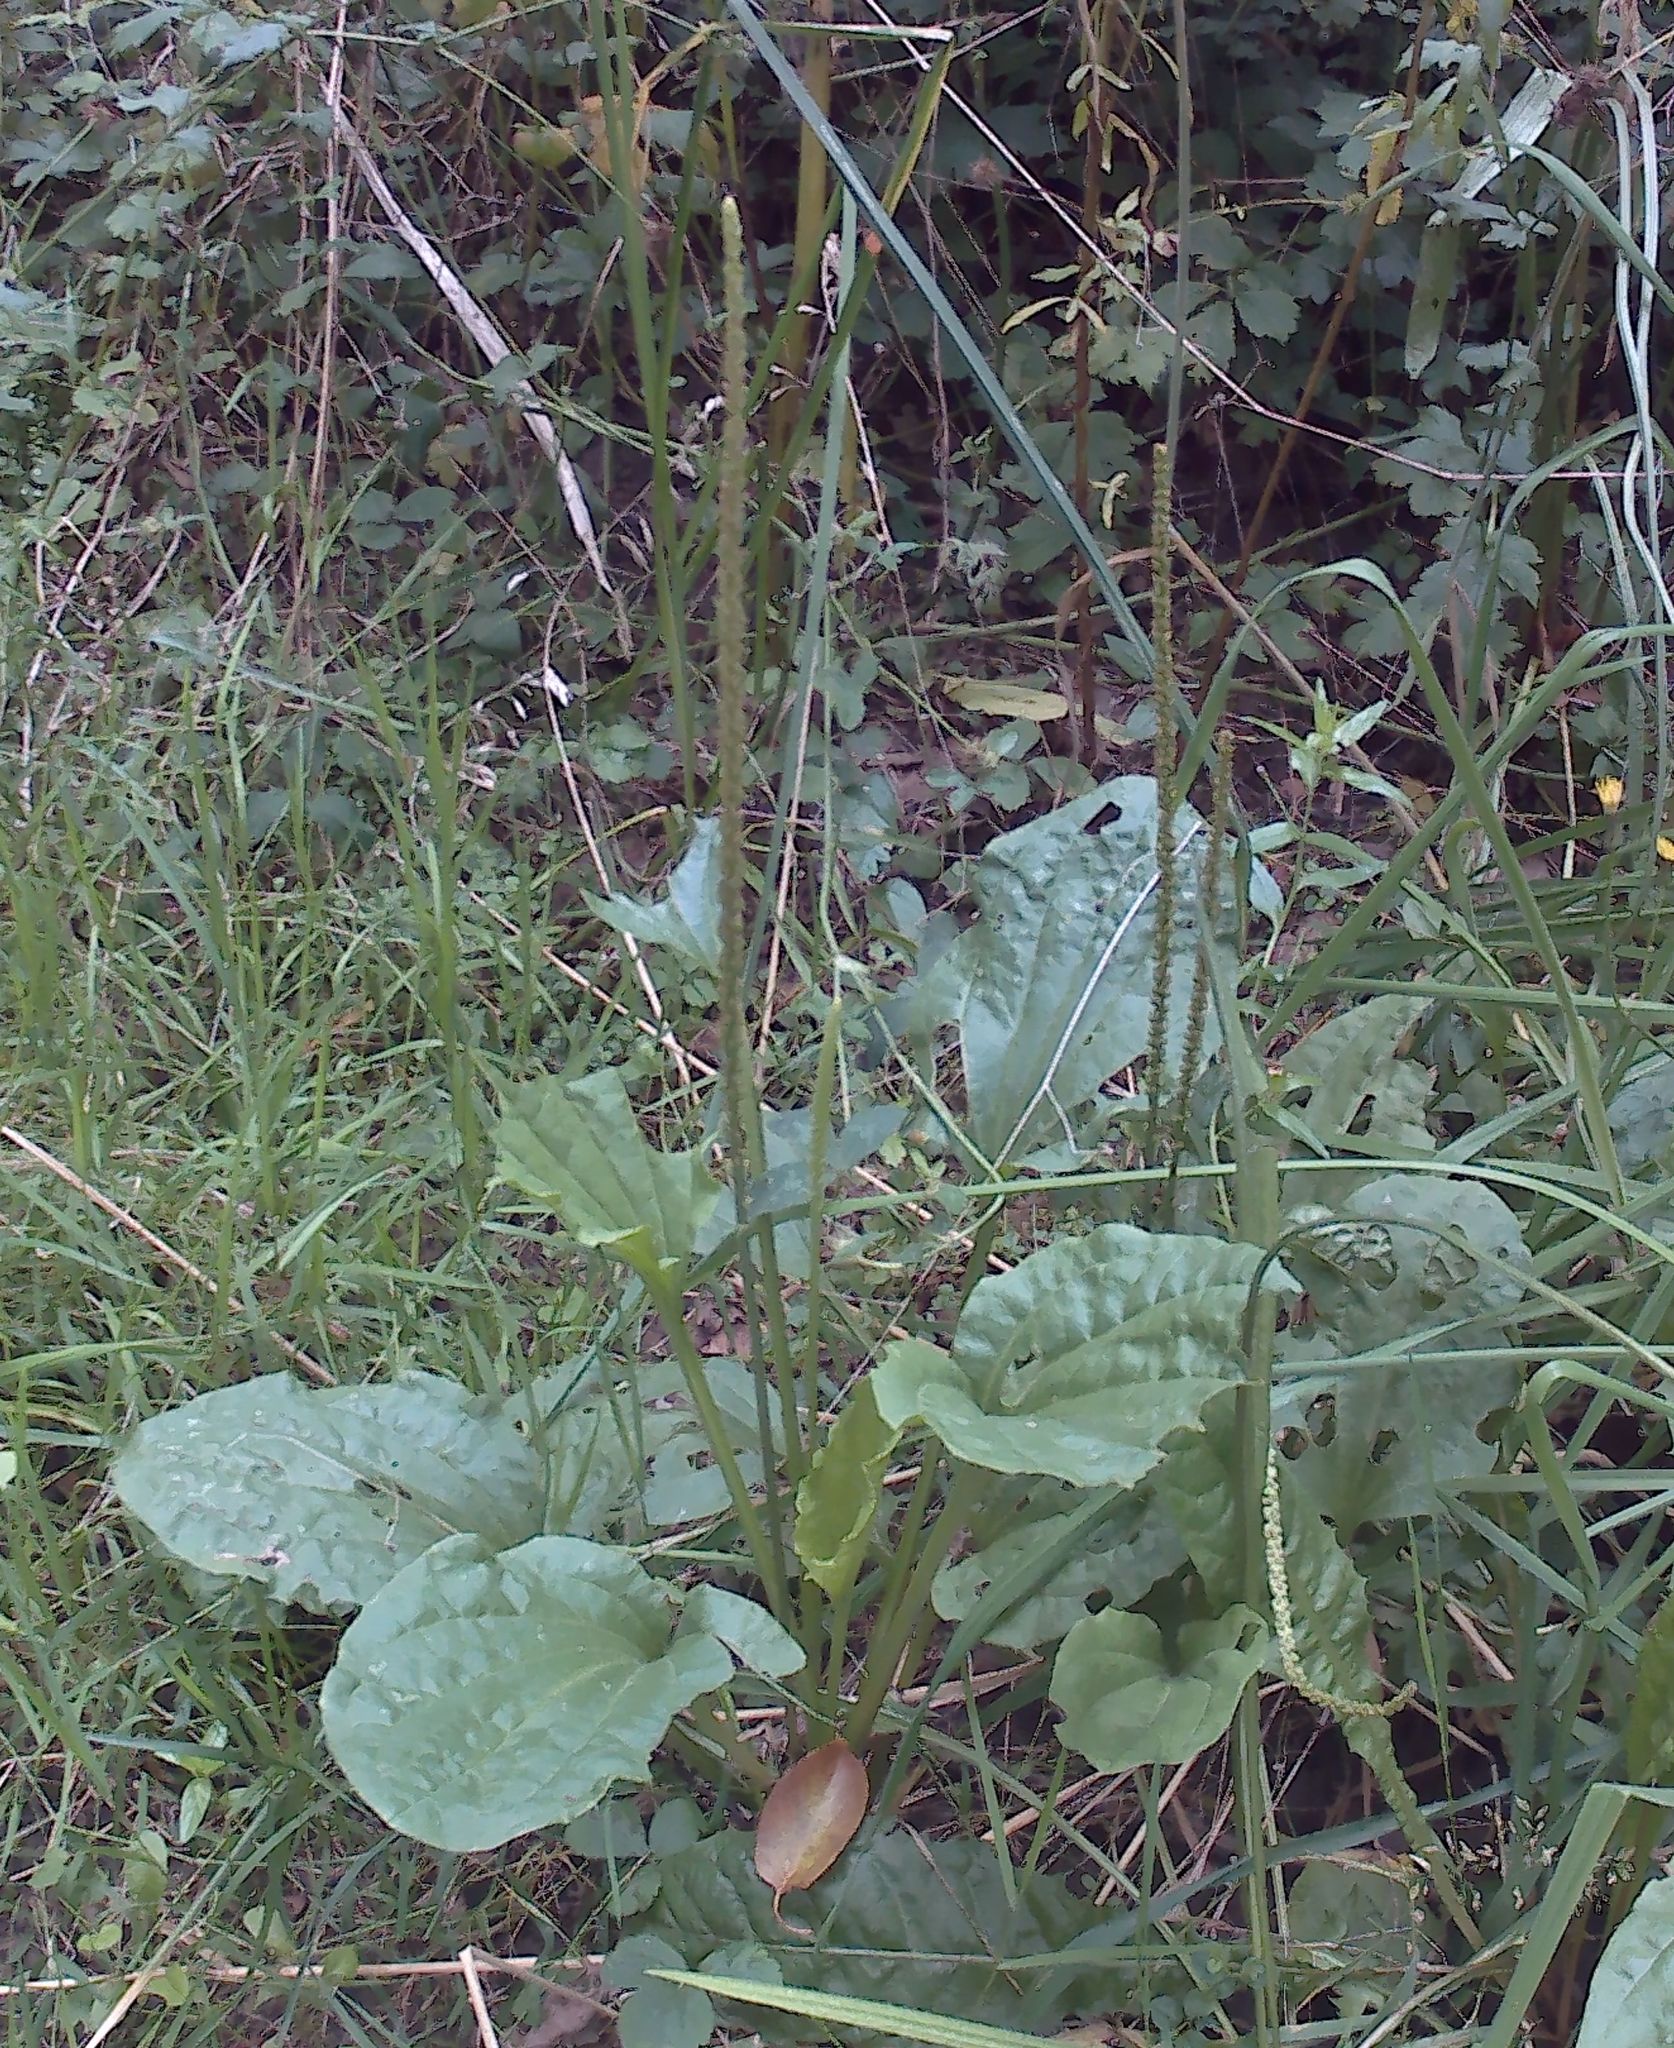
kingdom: Plantae
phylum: Tracheophyta
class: Magnoliopsida
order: Lamiales
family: Plantaginaceae
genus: Plantago
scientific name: Plantago major
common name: Common plantain
